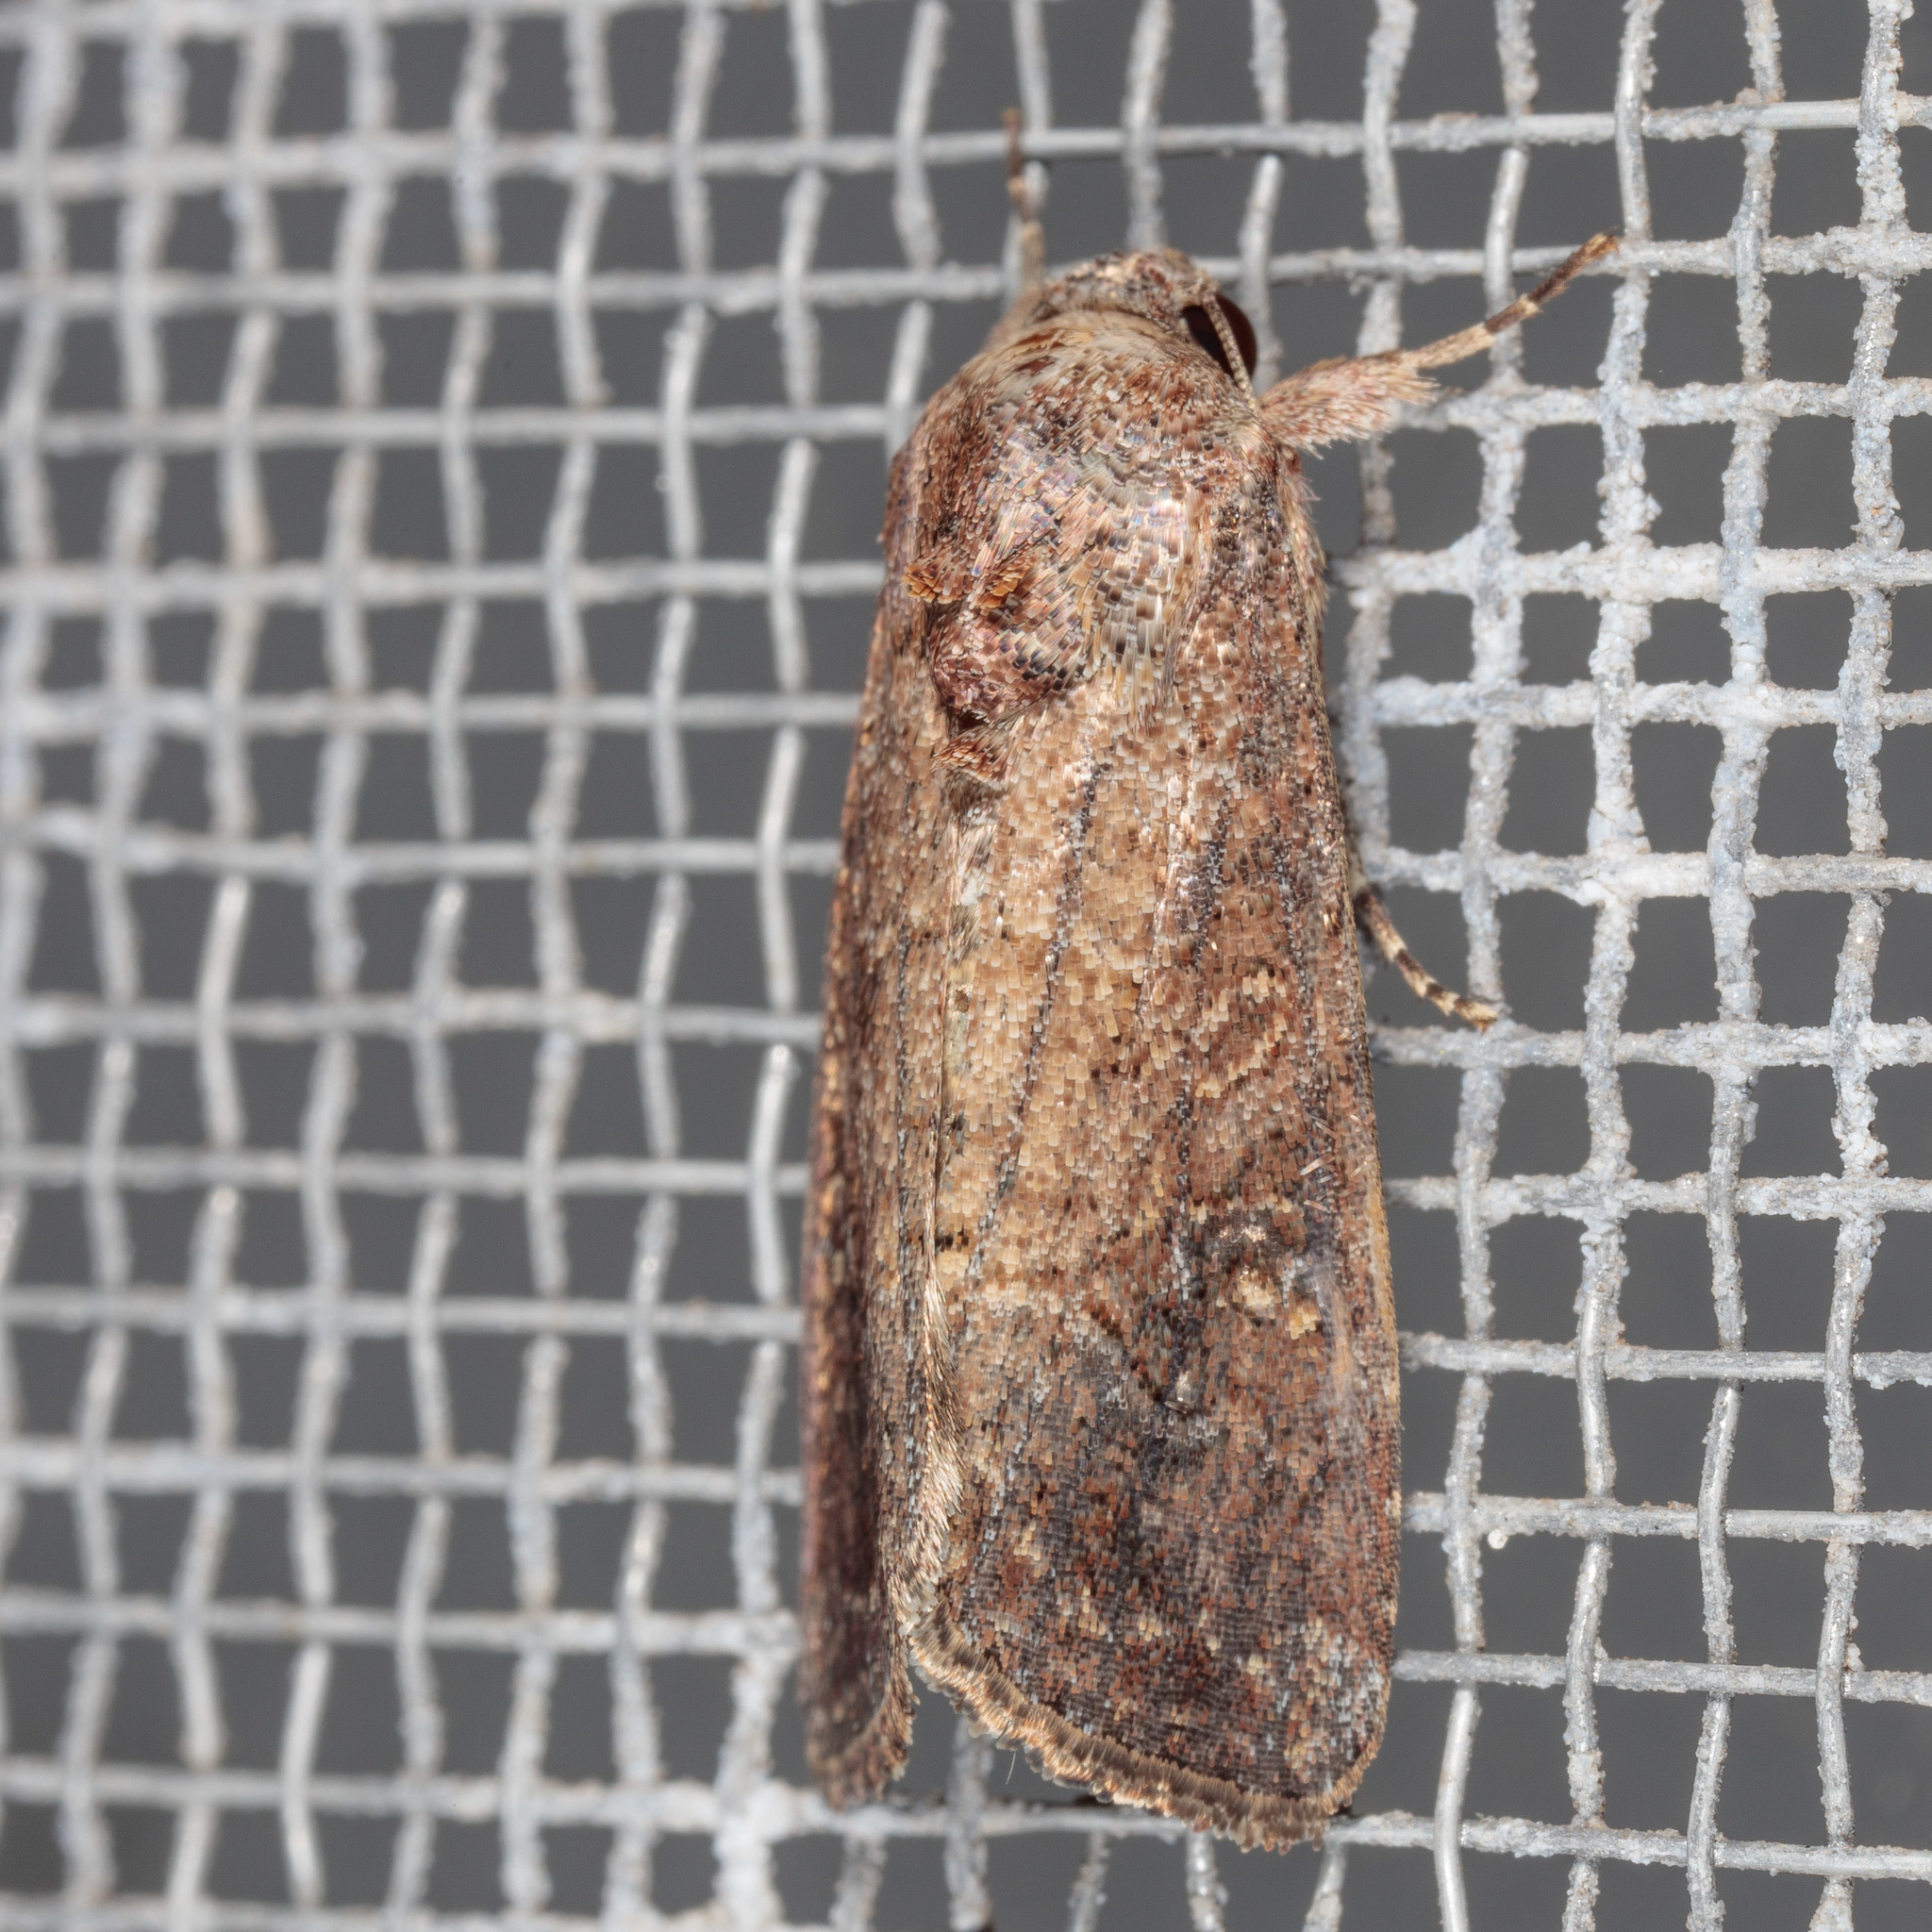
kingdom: Animalia
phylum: Arthropoda
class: Insecta
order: Lepidoptera
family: Noctuidae
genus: Spodoptera
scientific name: Spodoptera frugiperda
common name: Fall armyworm
